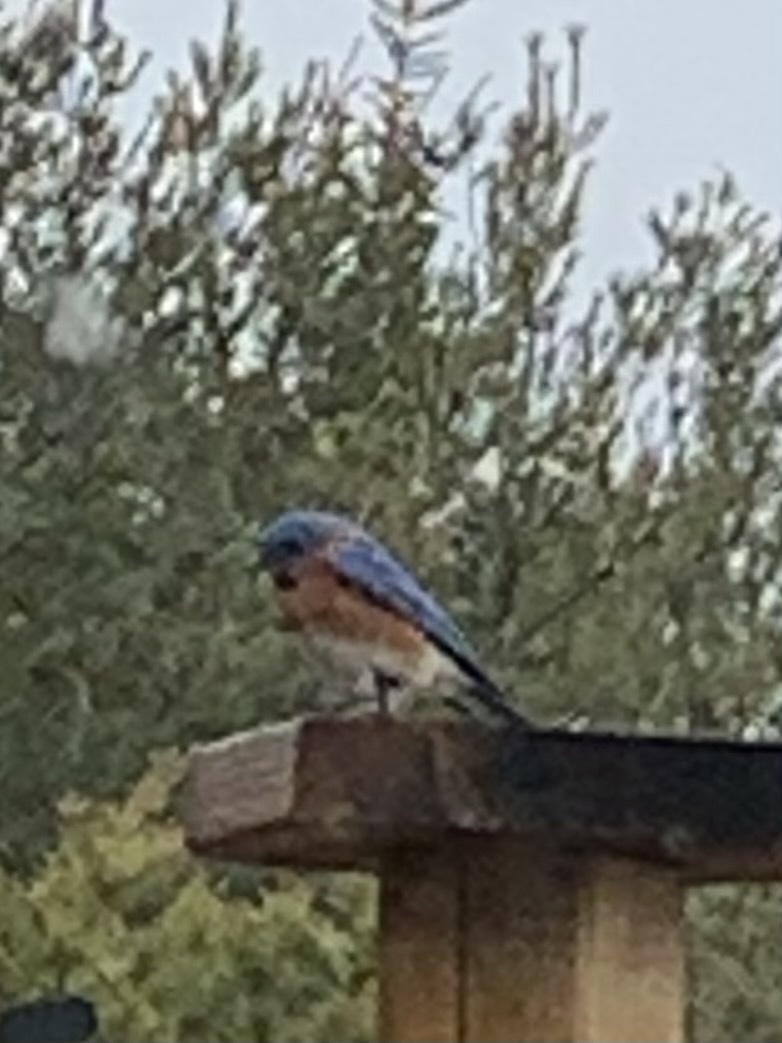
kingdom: Animalia
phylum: Chordata
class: Aves
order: Passeriformes
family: Turdidae
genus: Sialia
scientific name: Sialia sialis
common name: Eastern bluebird
